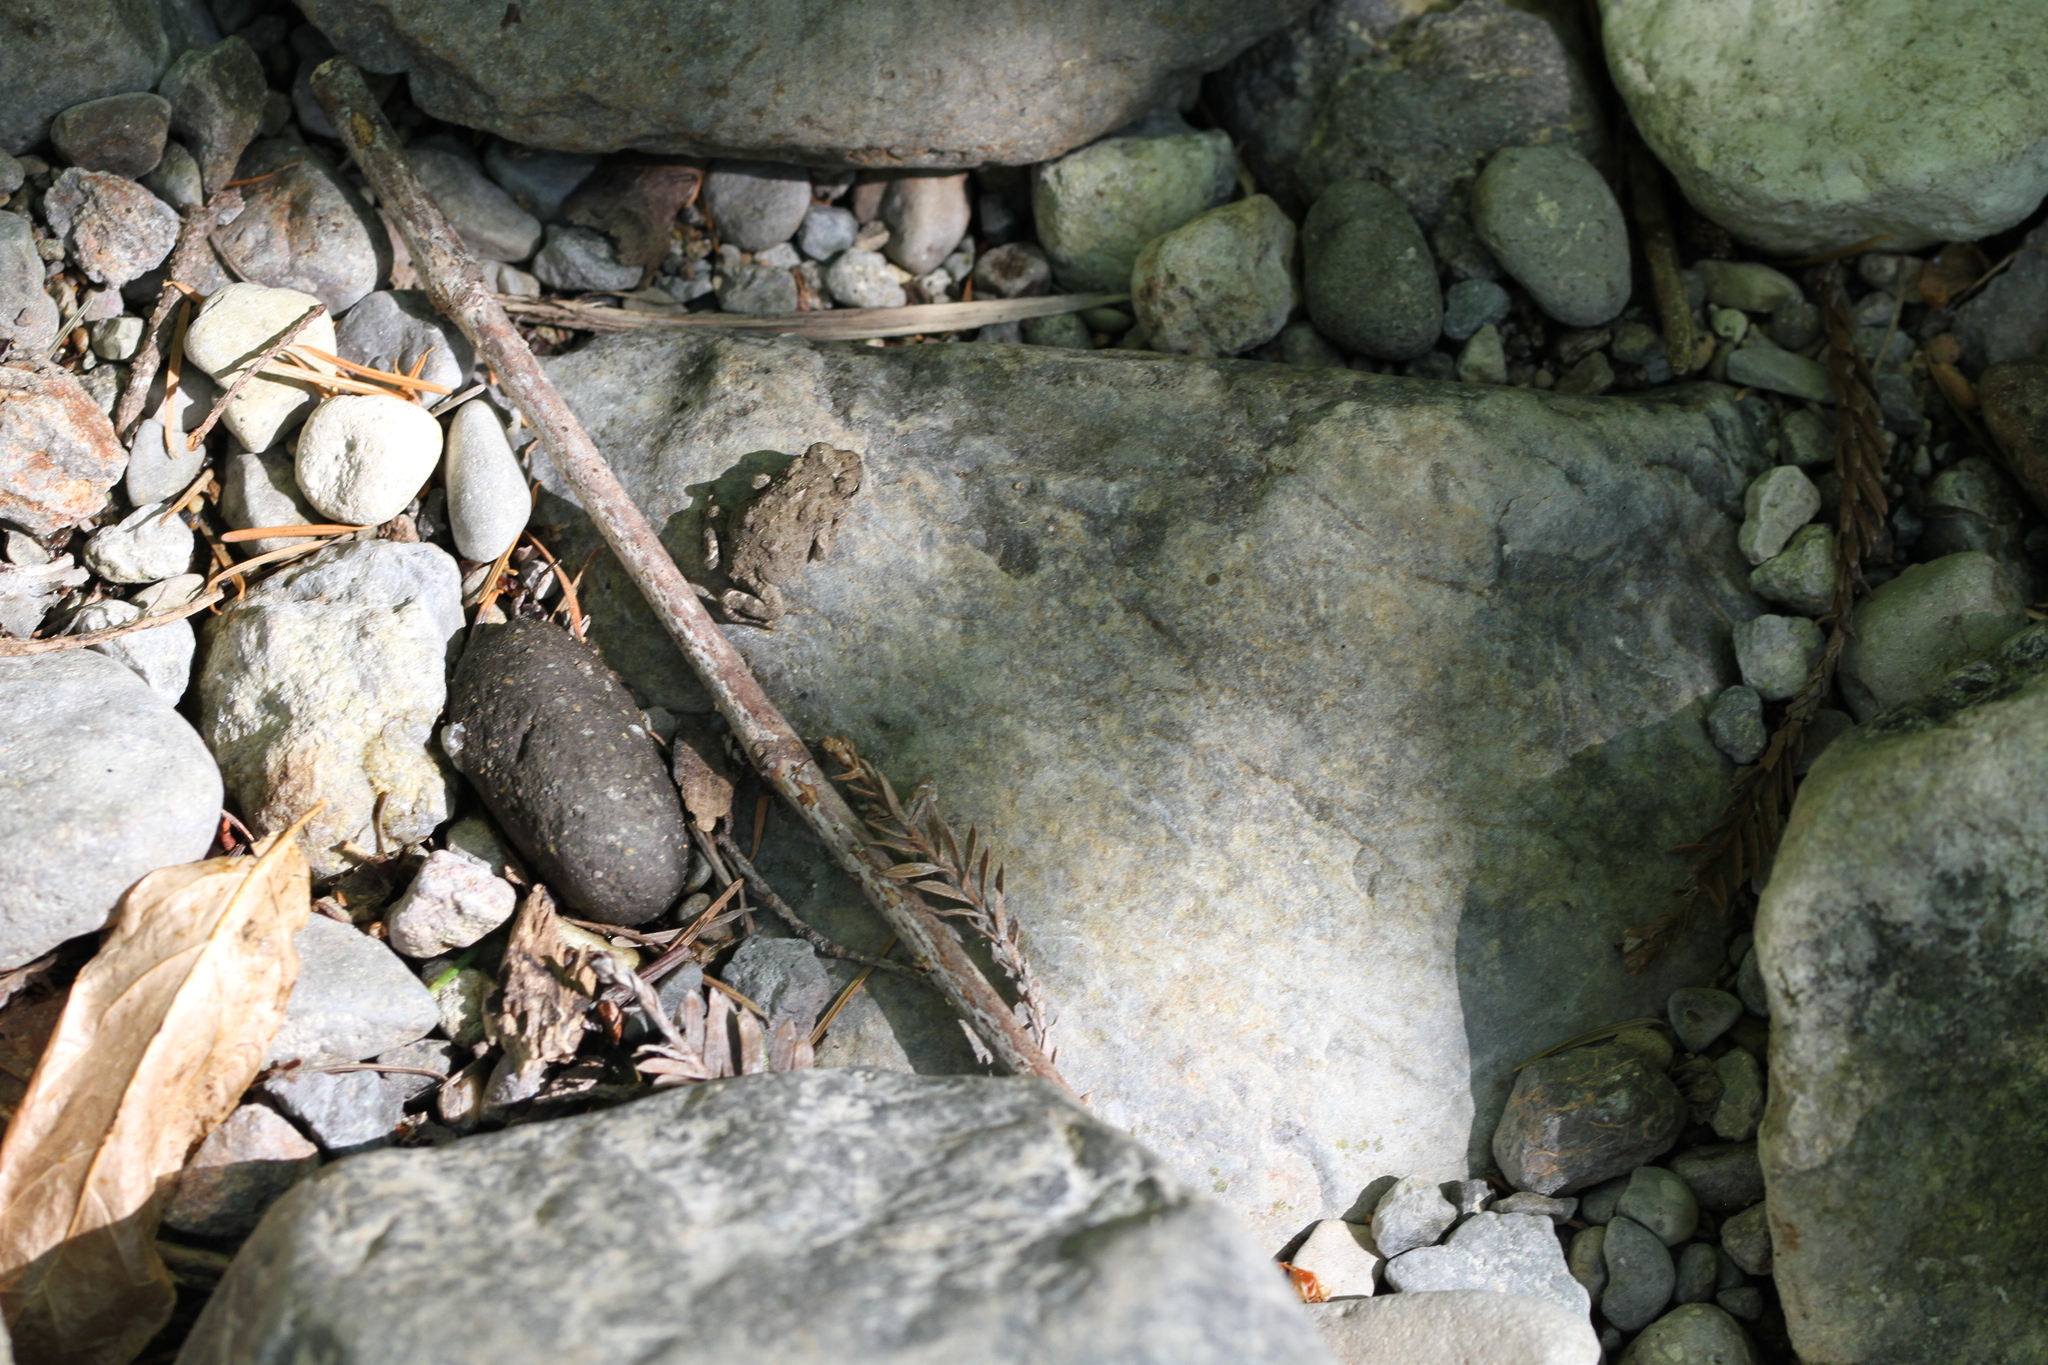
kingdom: Animalia
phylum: Chordata
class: Amphibia
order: Anura
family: Bufonidae
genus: Anaxyrus
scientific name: Anaxyrus boreas
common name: Western toad
